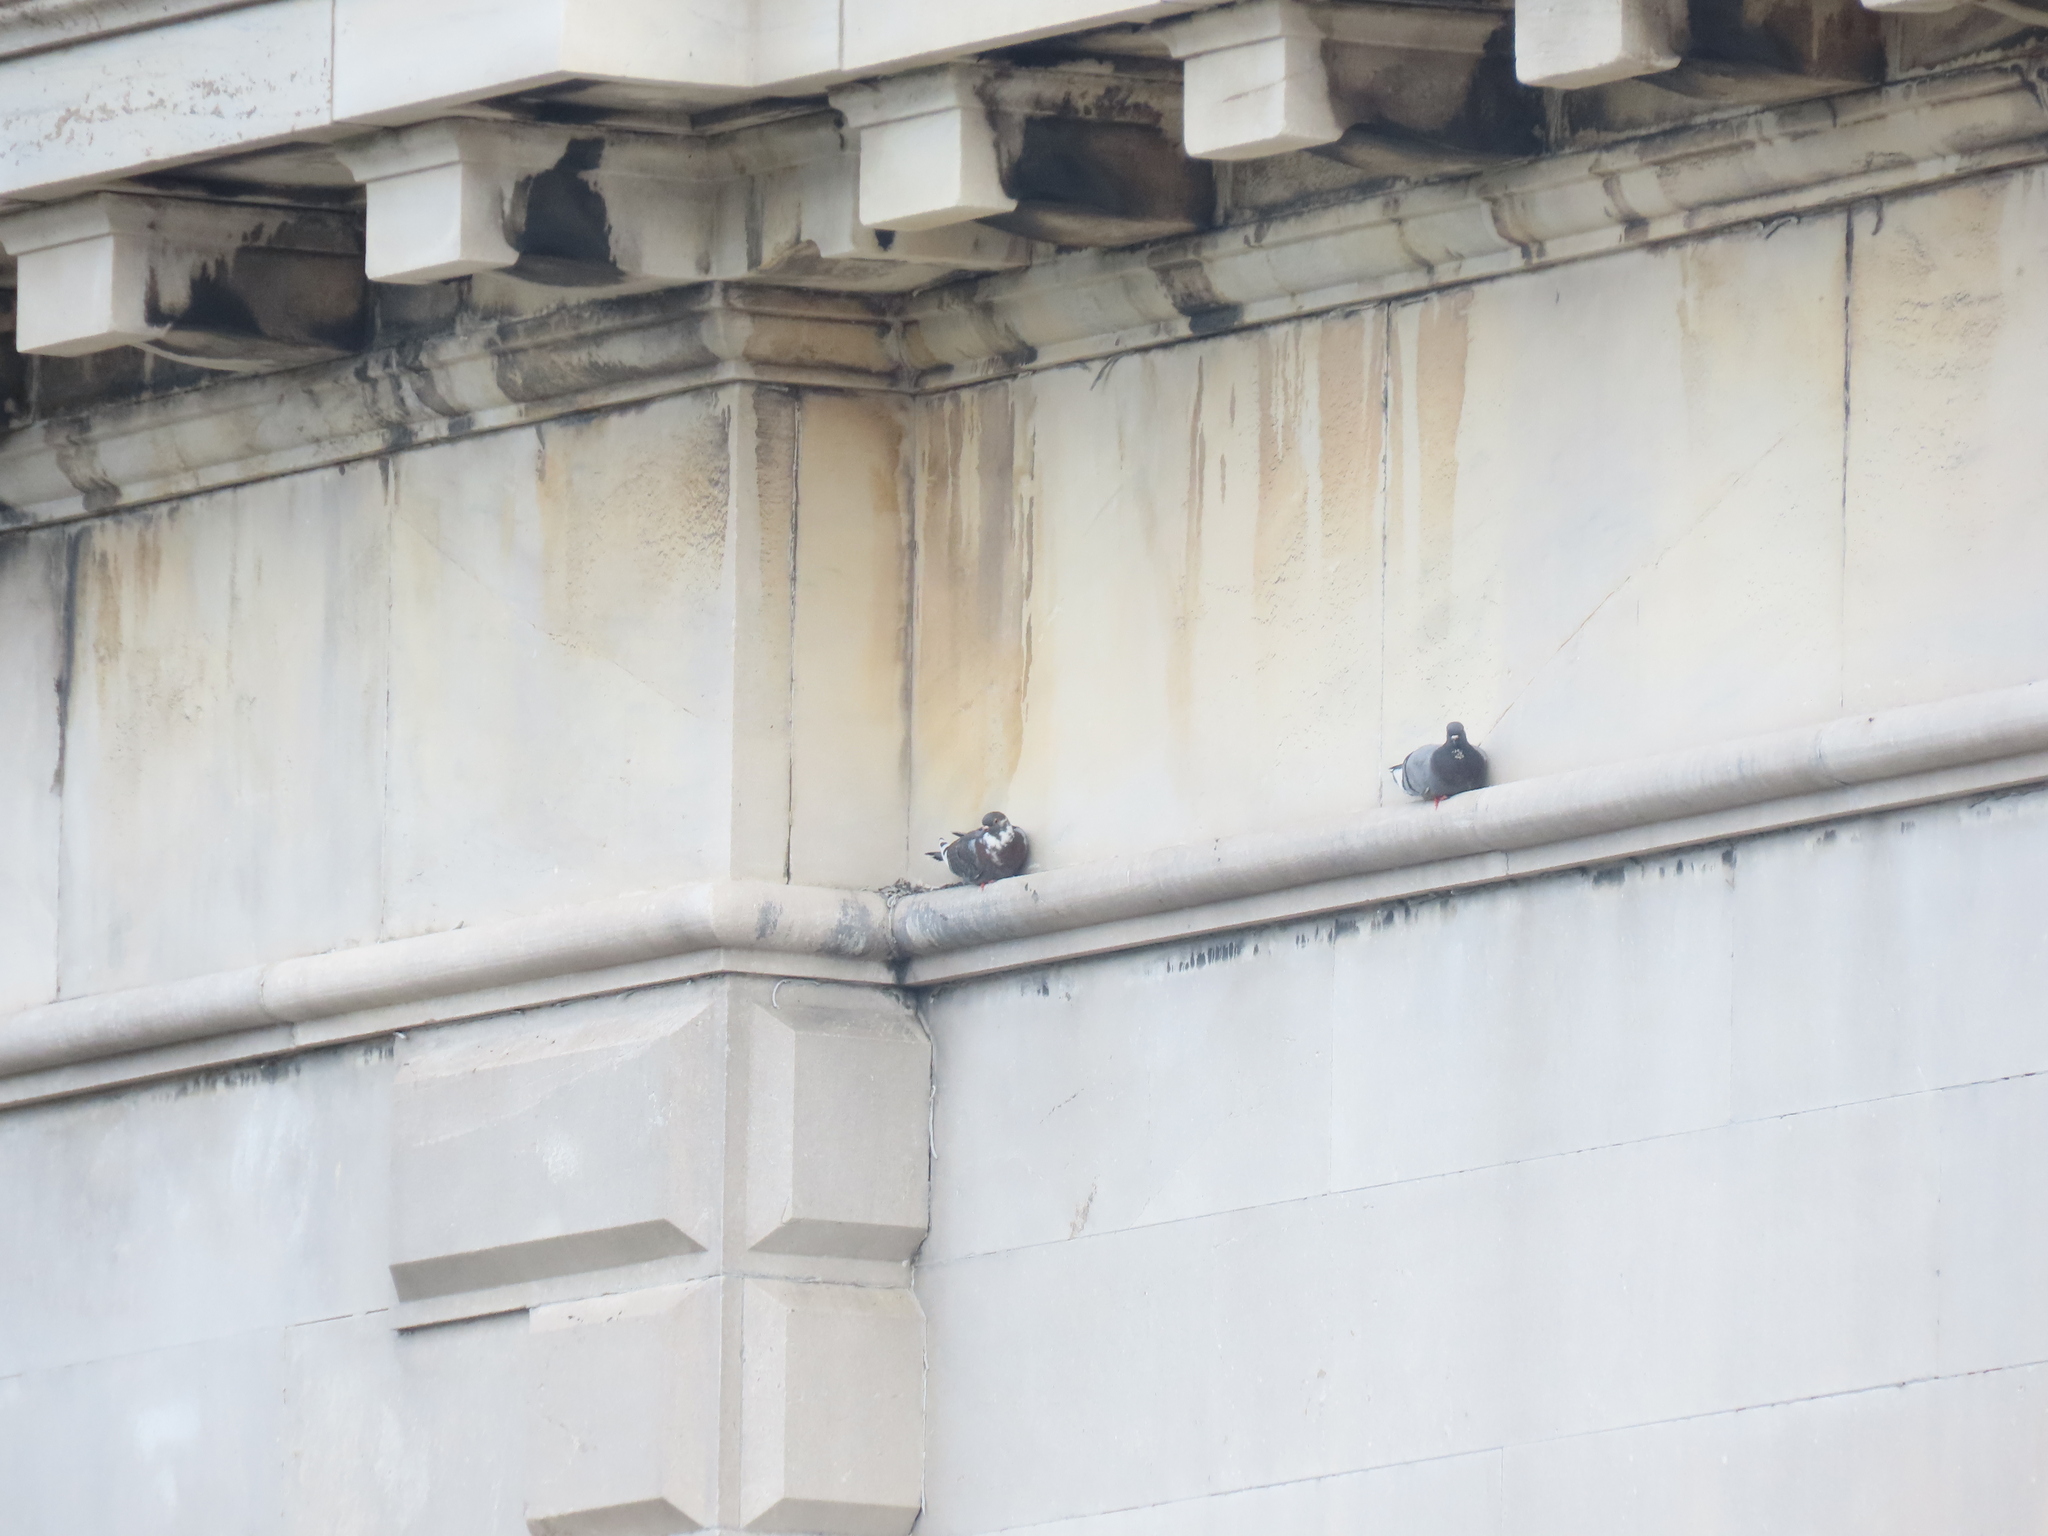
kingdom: Animalia
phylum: Chordata
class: Aves
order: Columbiformes
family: Columbidae
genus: Columba
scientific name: Columba livia
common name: Rock pigeon
